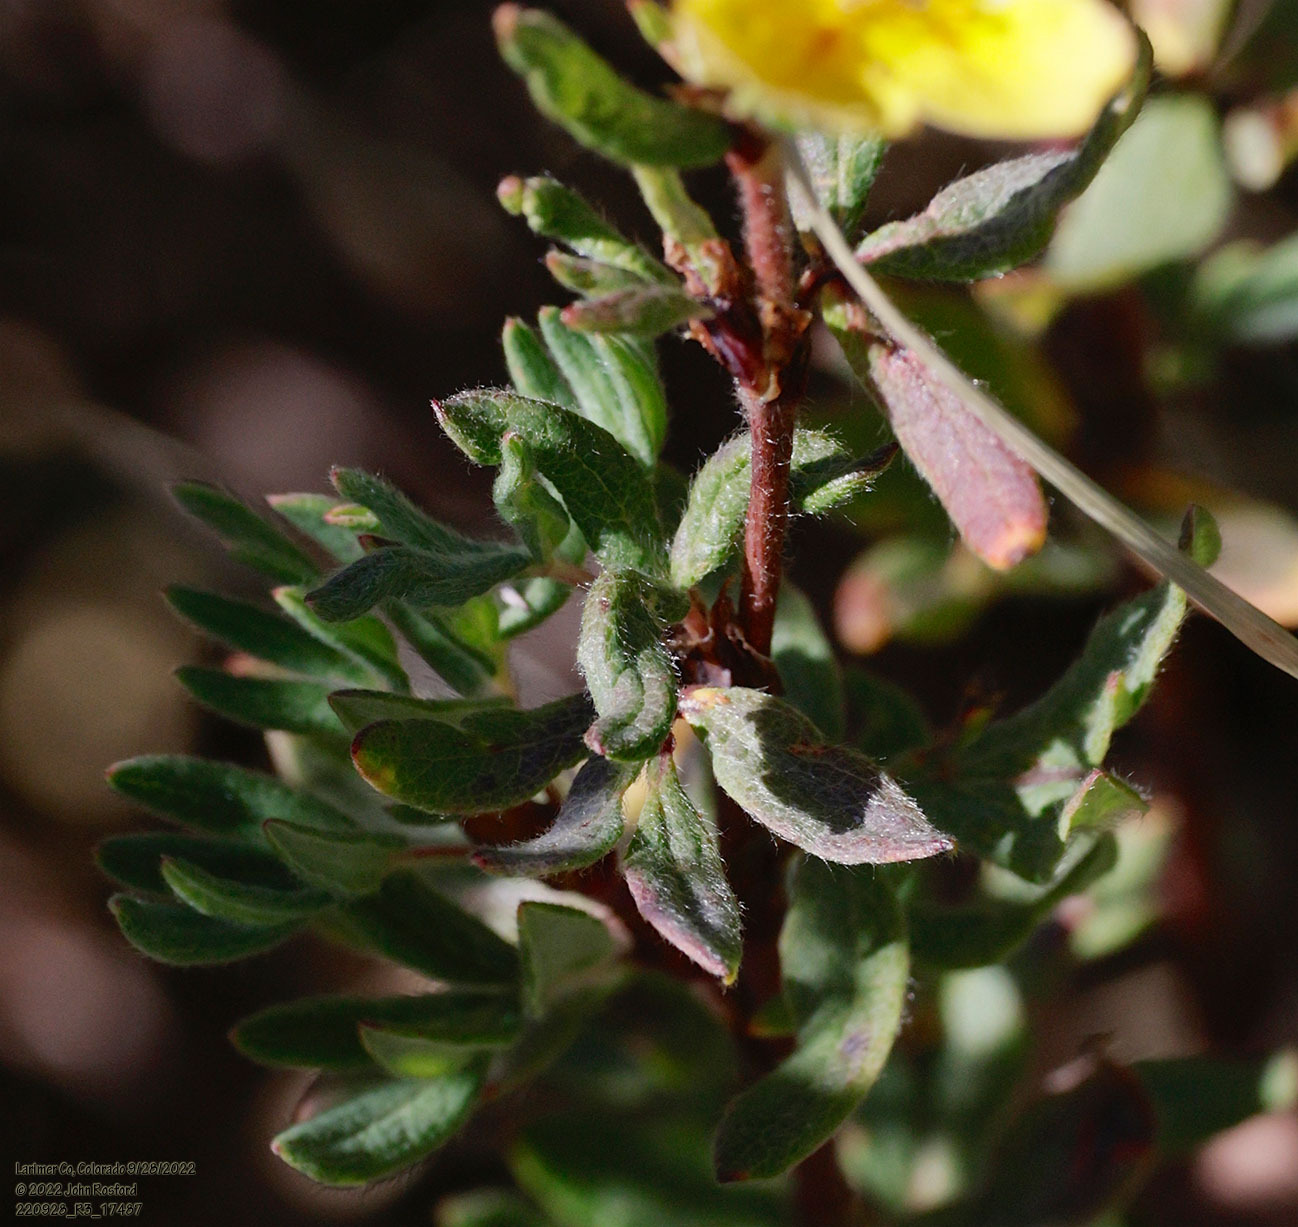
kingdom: Plantae
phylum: Tracheophyta
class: Magnoliopsida
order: Rosales
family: Rosaceae
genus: Dasiphora
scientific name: Dasiphora fruticosa
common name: Shrubby cinquefoil
